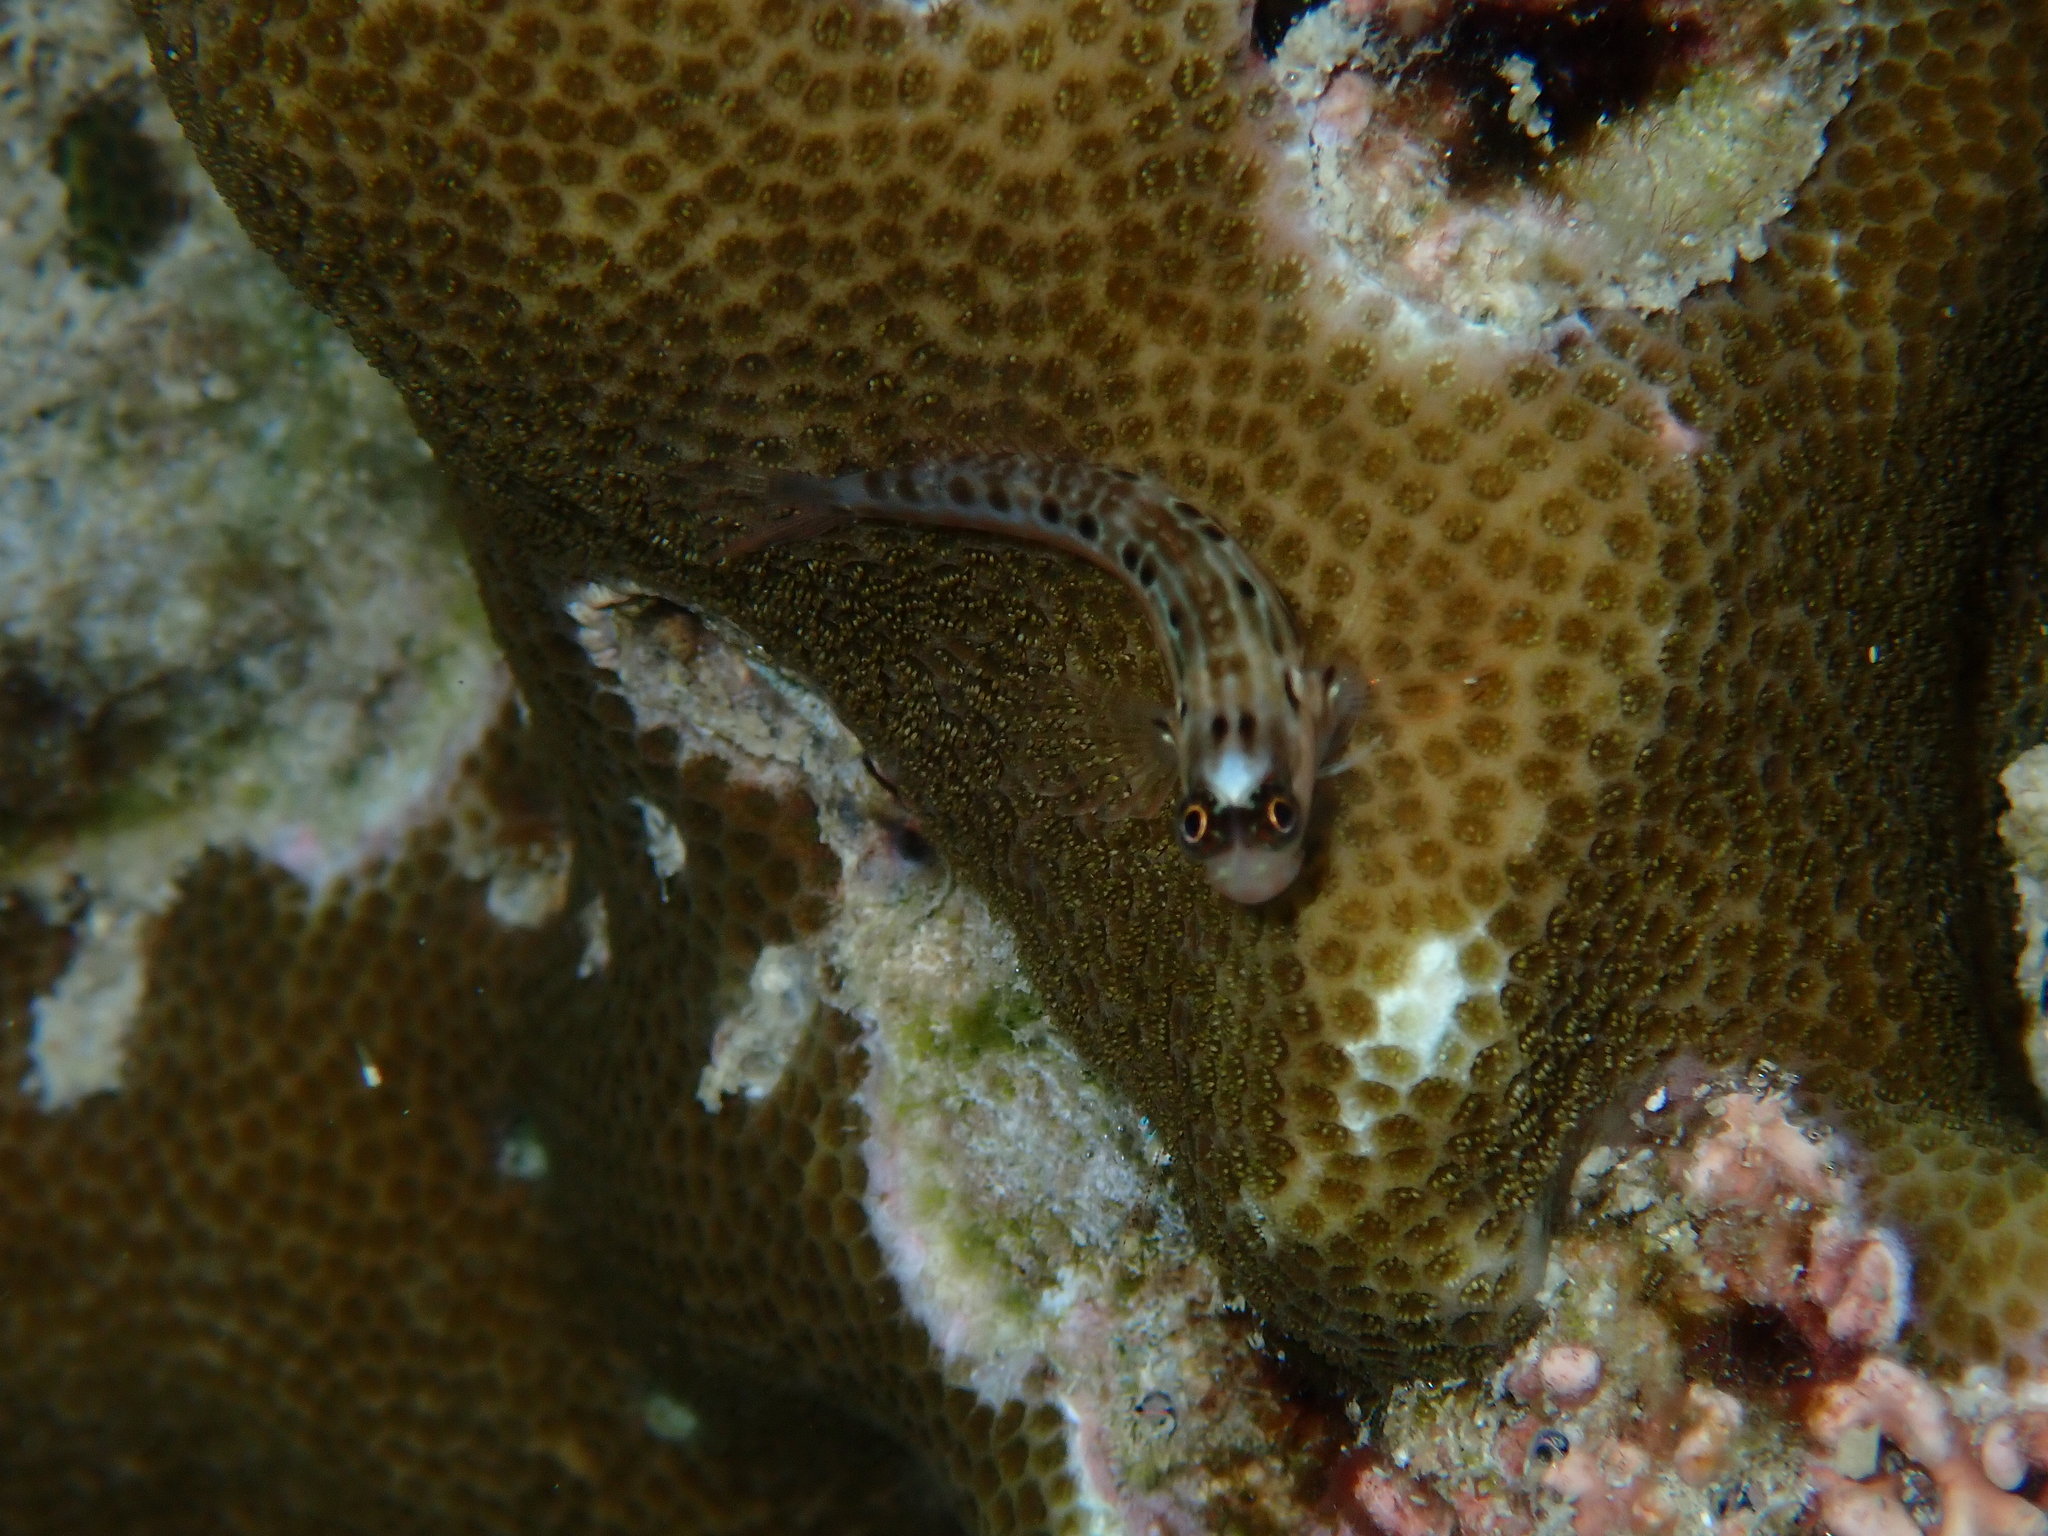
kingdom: Animalia
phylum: Chordata
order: Perciformes
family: Blenniidae
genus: Ecsenius
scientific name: Ecsenius paroculus
